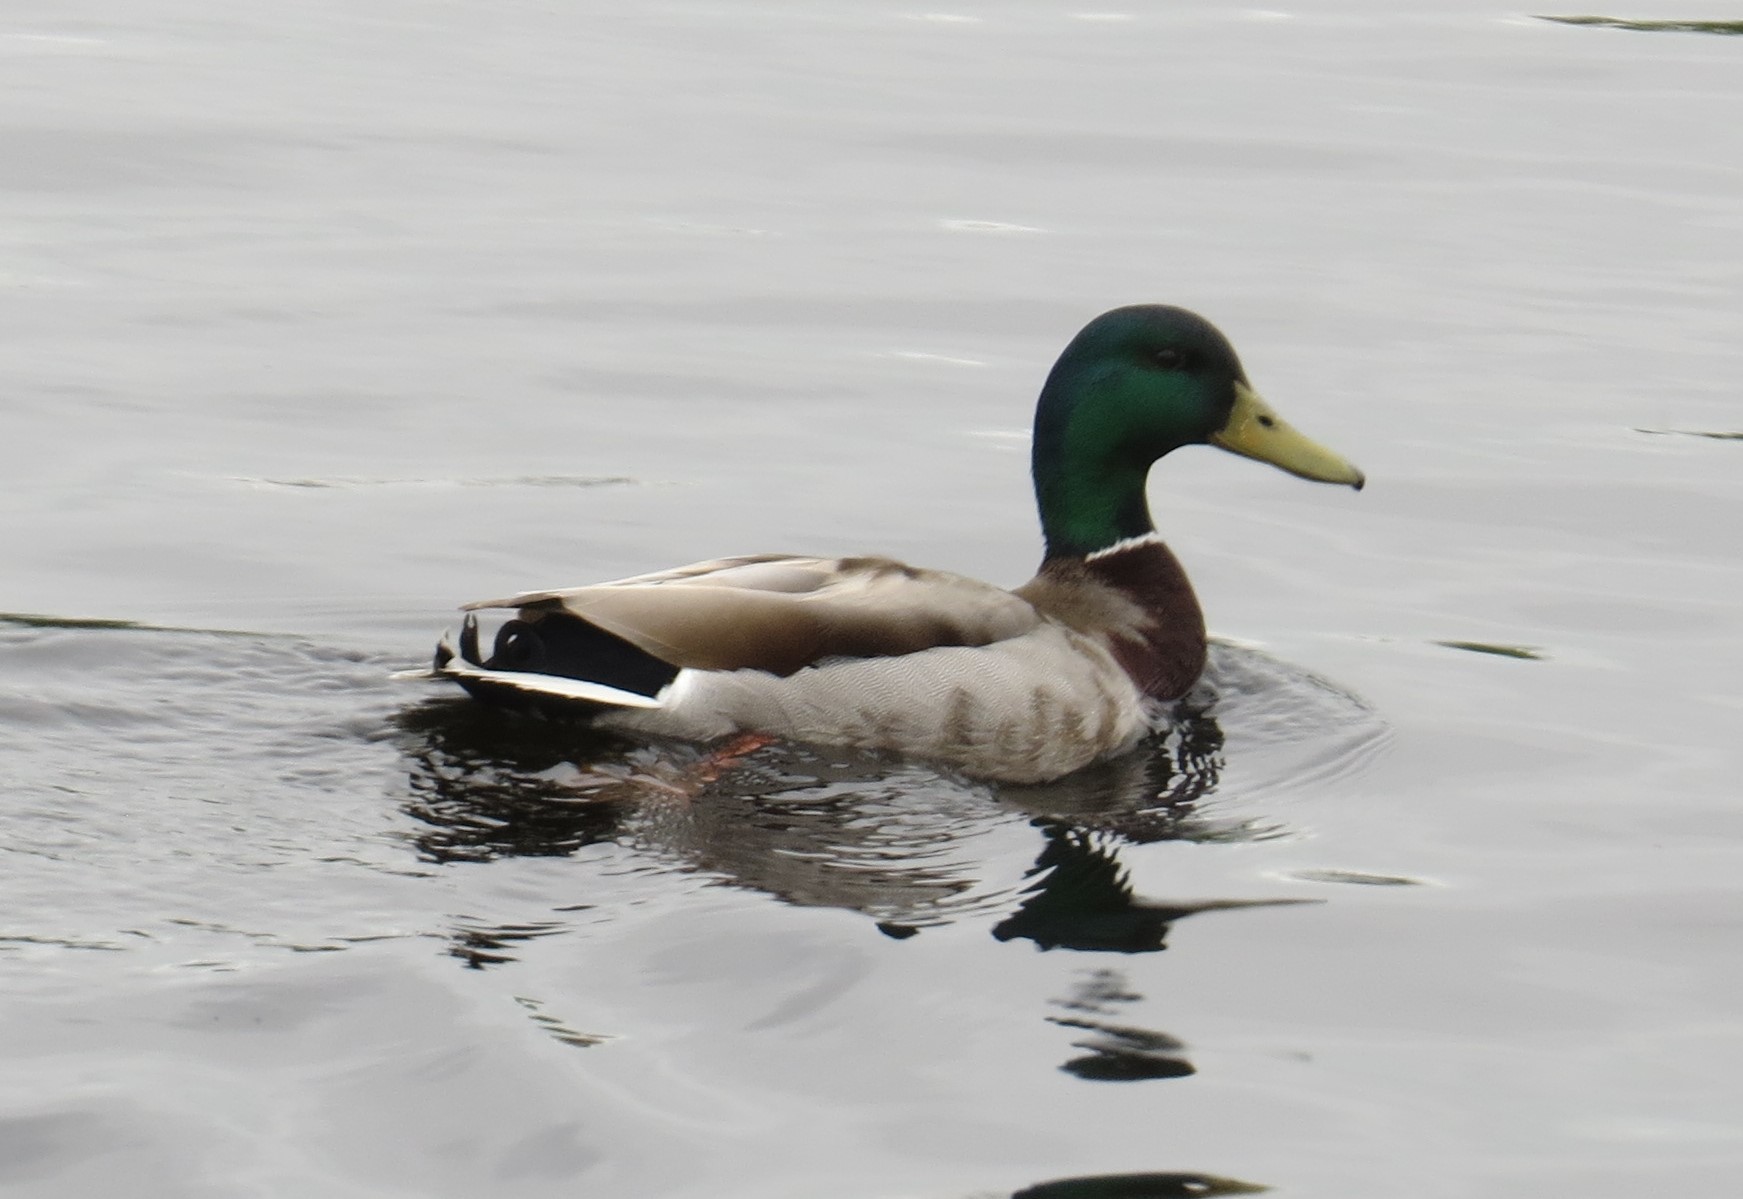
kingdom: Animalia
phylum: Chordata
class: Aves
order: Anseriformes
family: Anatidae
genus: Anas
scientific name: Anas platyrhynchos
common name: Mallard
